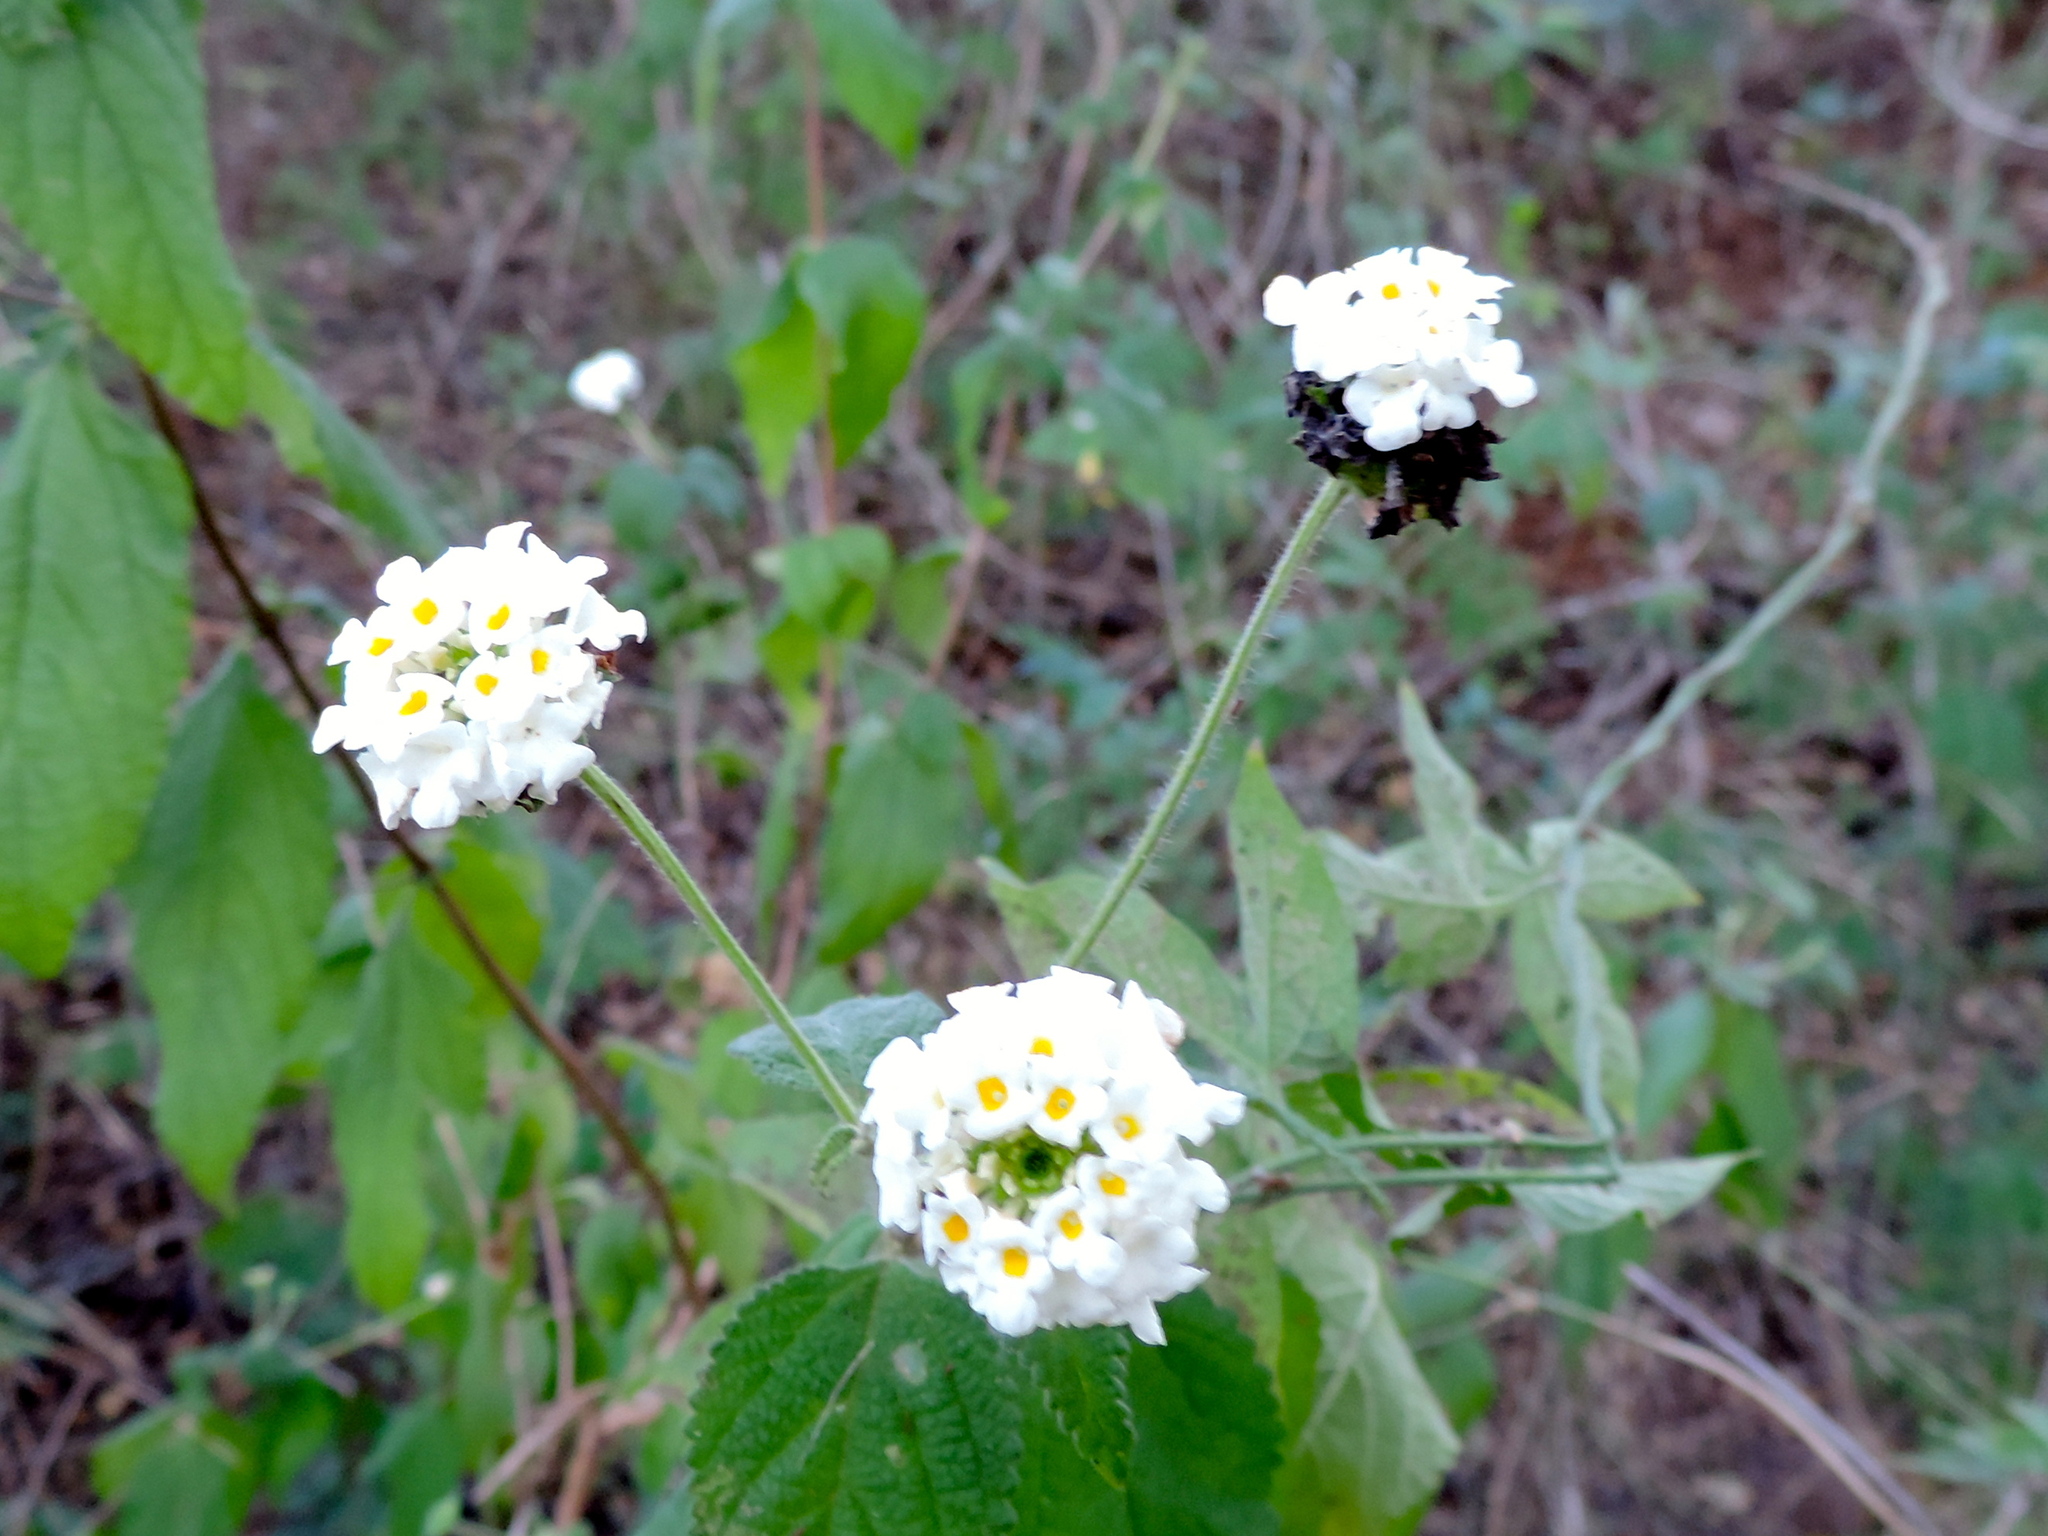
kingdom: Plantae
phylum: Tracheophyta
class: Magnoliopsida
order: Lamiales
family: Verbenaceae
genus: Lantana
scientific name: Lantana velutina
